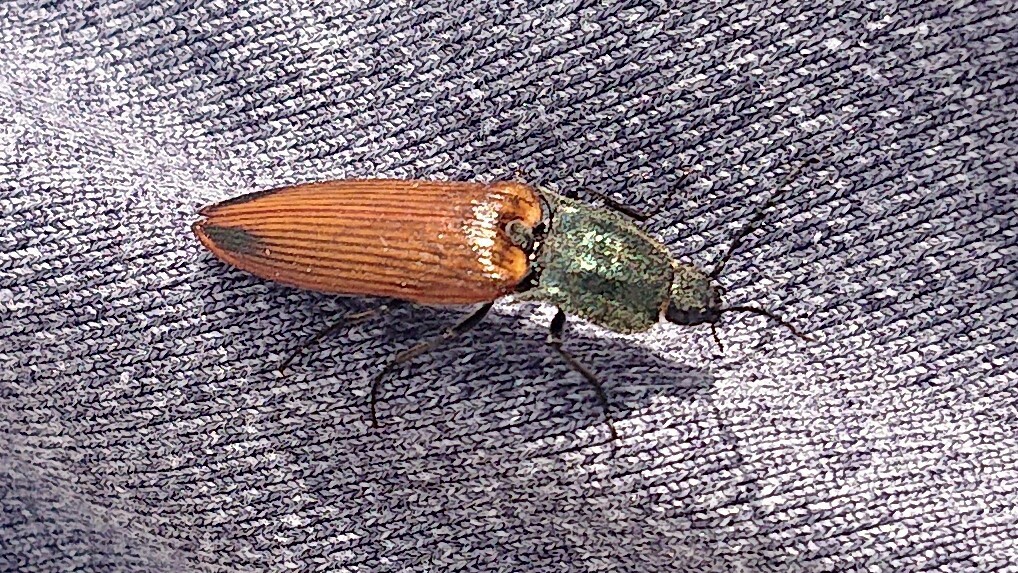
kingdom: Animalia
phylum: Arthropoda
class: Insecta
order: Coleoptera
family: Elateridae
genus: Ctenicera
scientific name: Ctenicera virens
